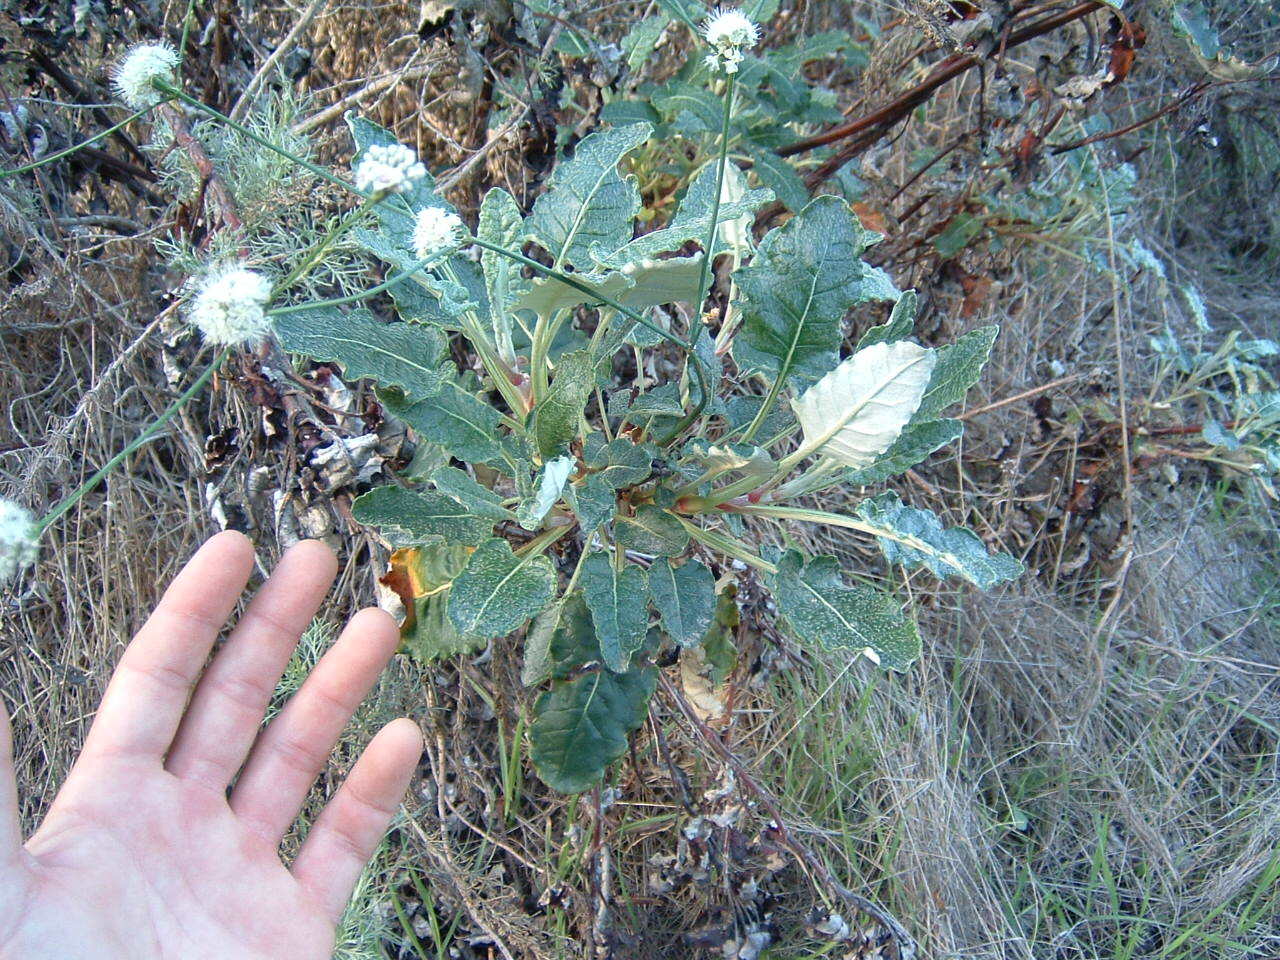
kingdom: Plantae
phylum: Tracheophyta
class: Magnoliopsida
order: Caryophyllales
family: Polygonaceae
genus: Eriogonum
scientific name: Eriogonum grande
